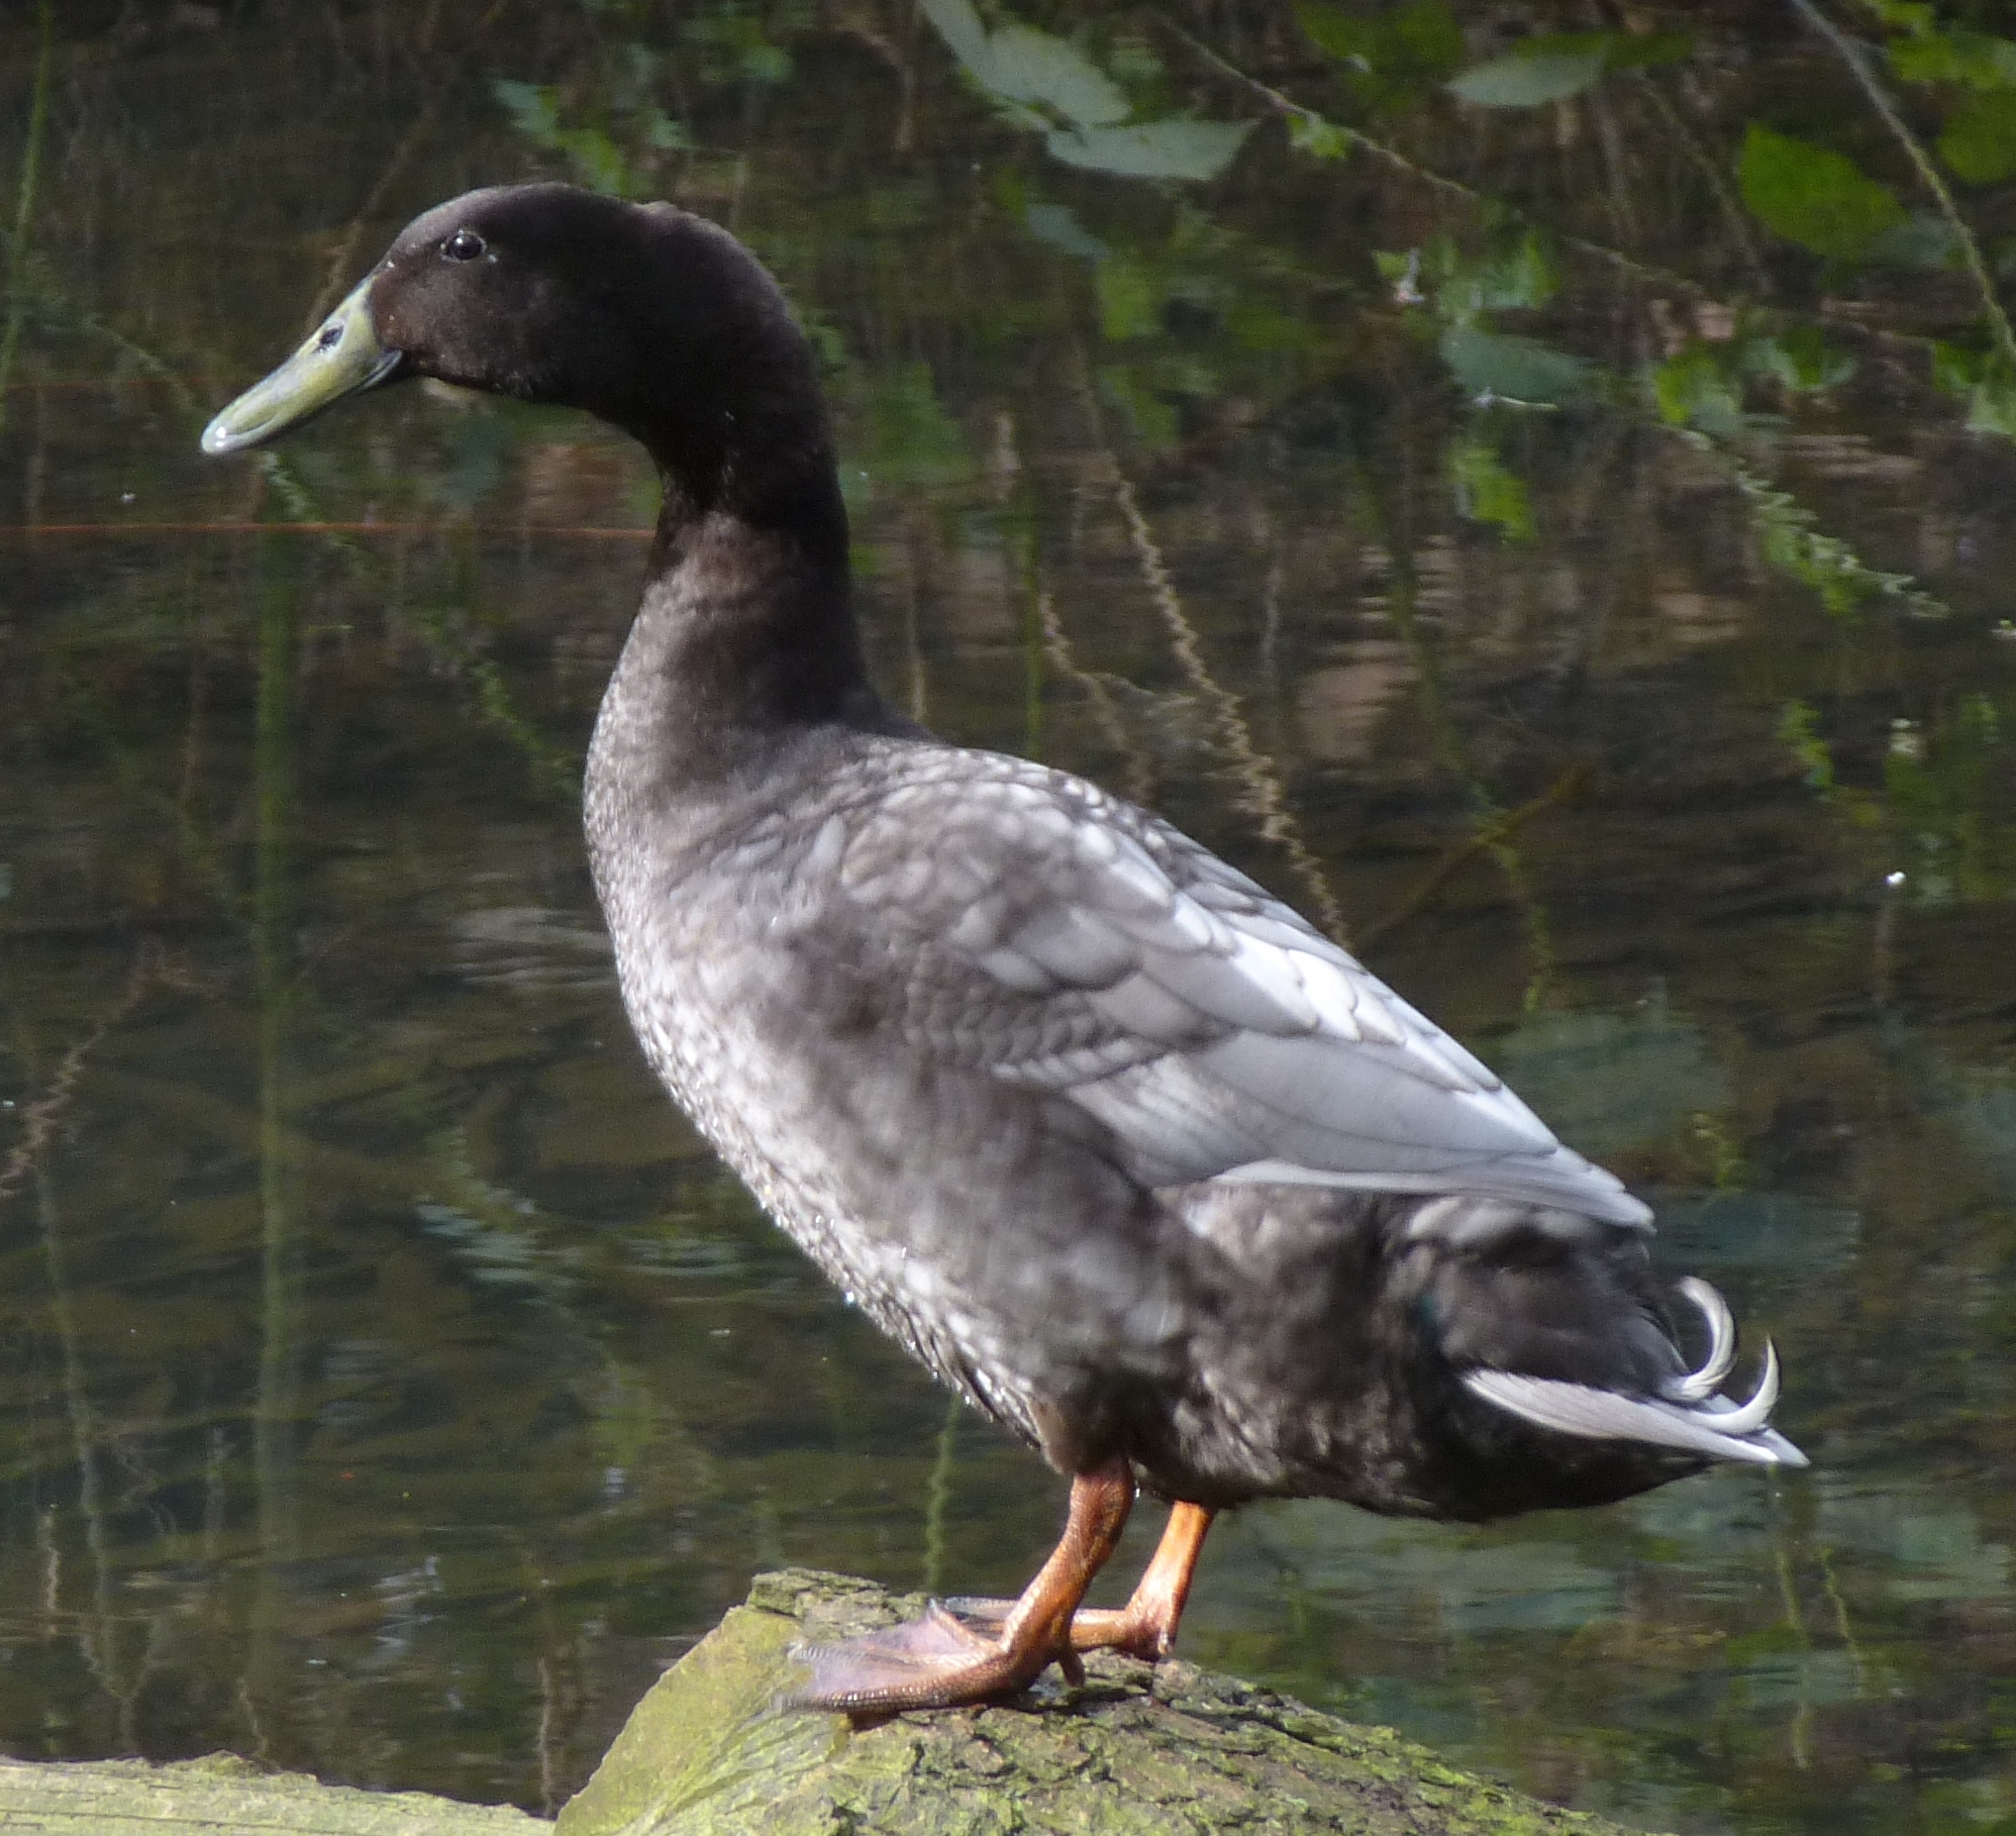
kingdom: Animalia
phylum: Chordata
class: Aves
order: Anseriformes
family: Anatidae
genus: Anas
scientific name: Anas platyrhynchos
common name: Mallard
